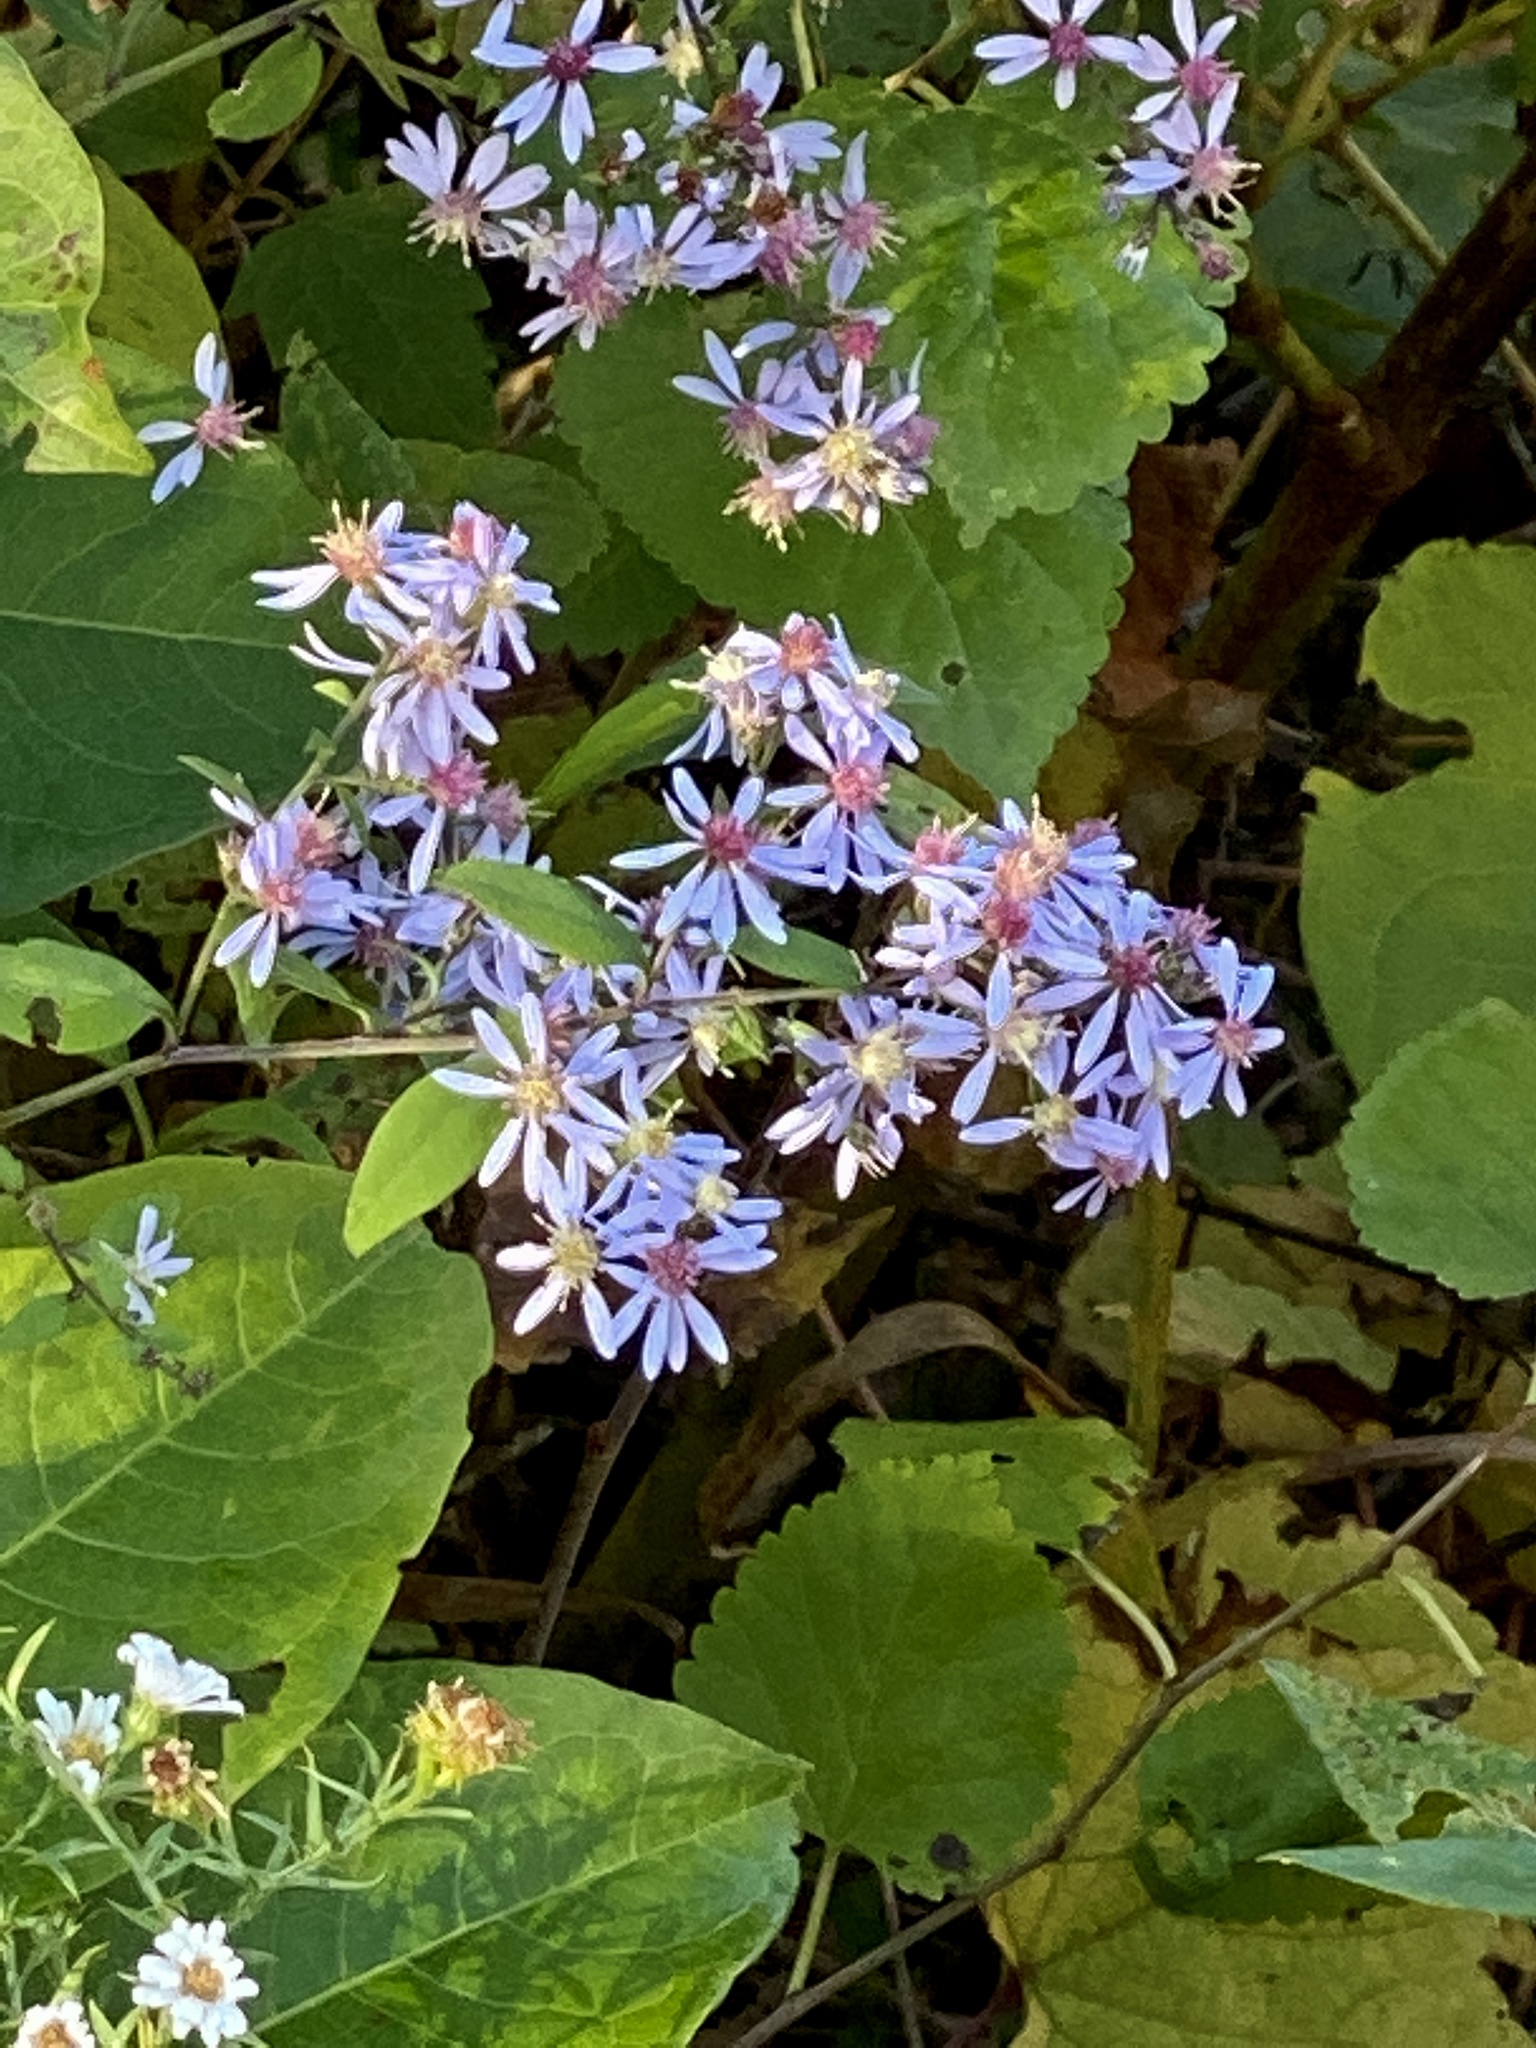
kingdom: Plantae
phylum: Tracheophyta
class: Magnoliopsida
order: Asterales
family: Asteraceae
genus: Symphyotrichum
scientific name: Symphyotrichum cordifolium
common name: Beeweed
